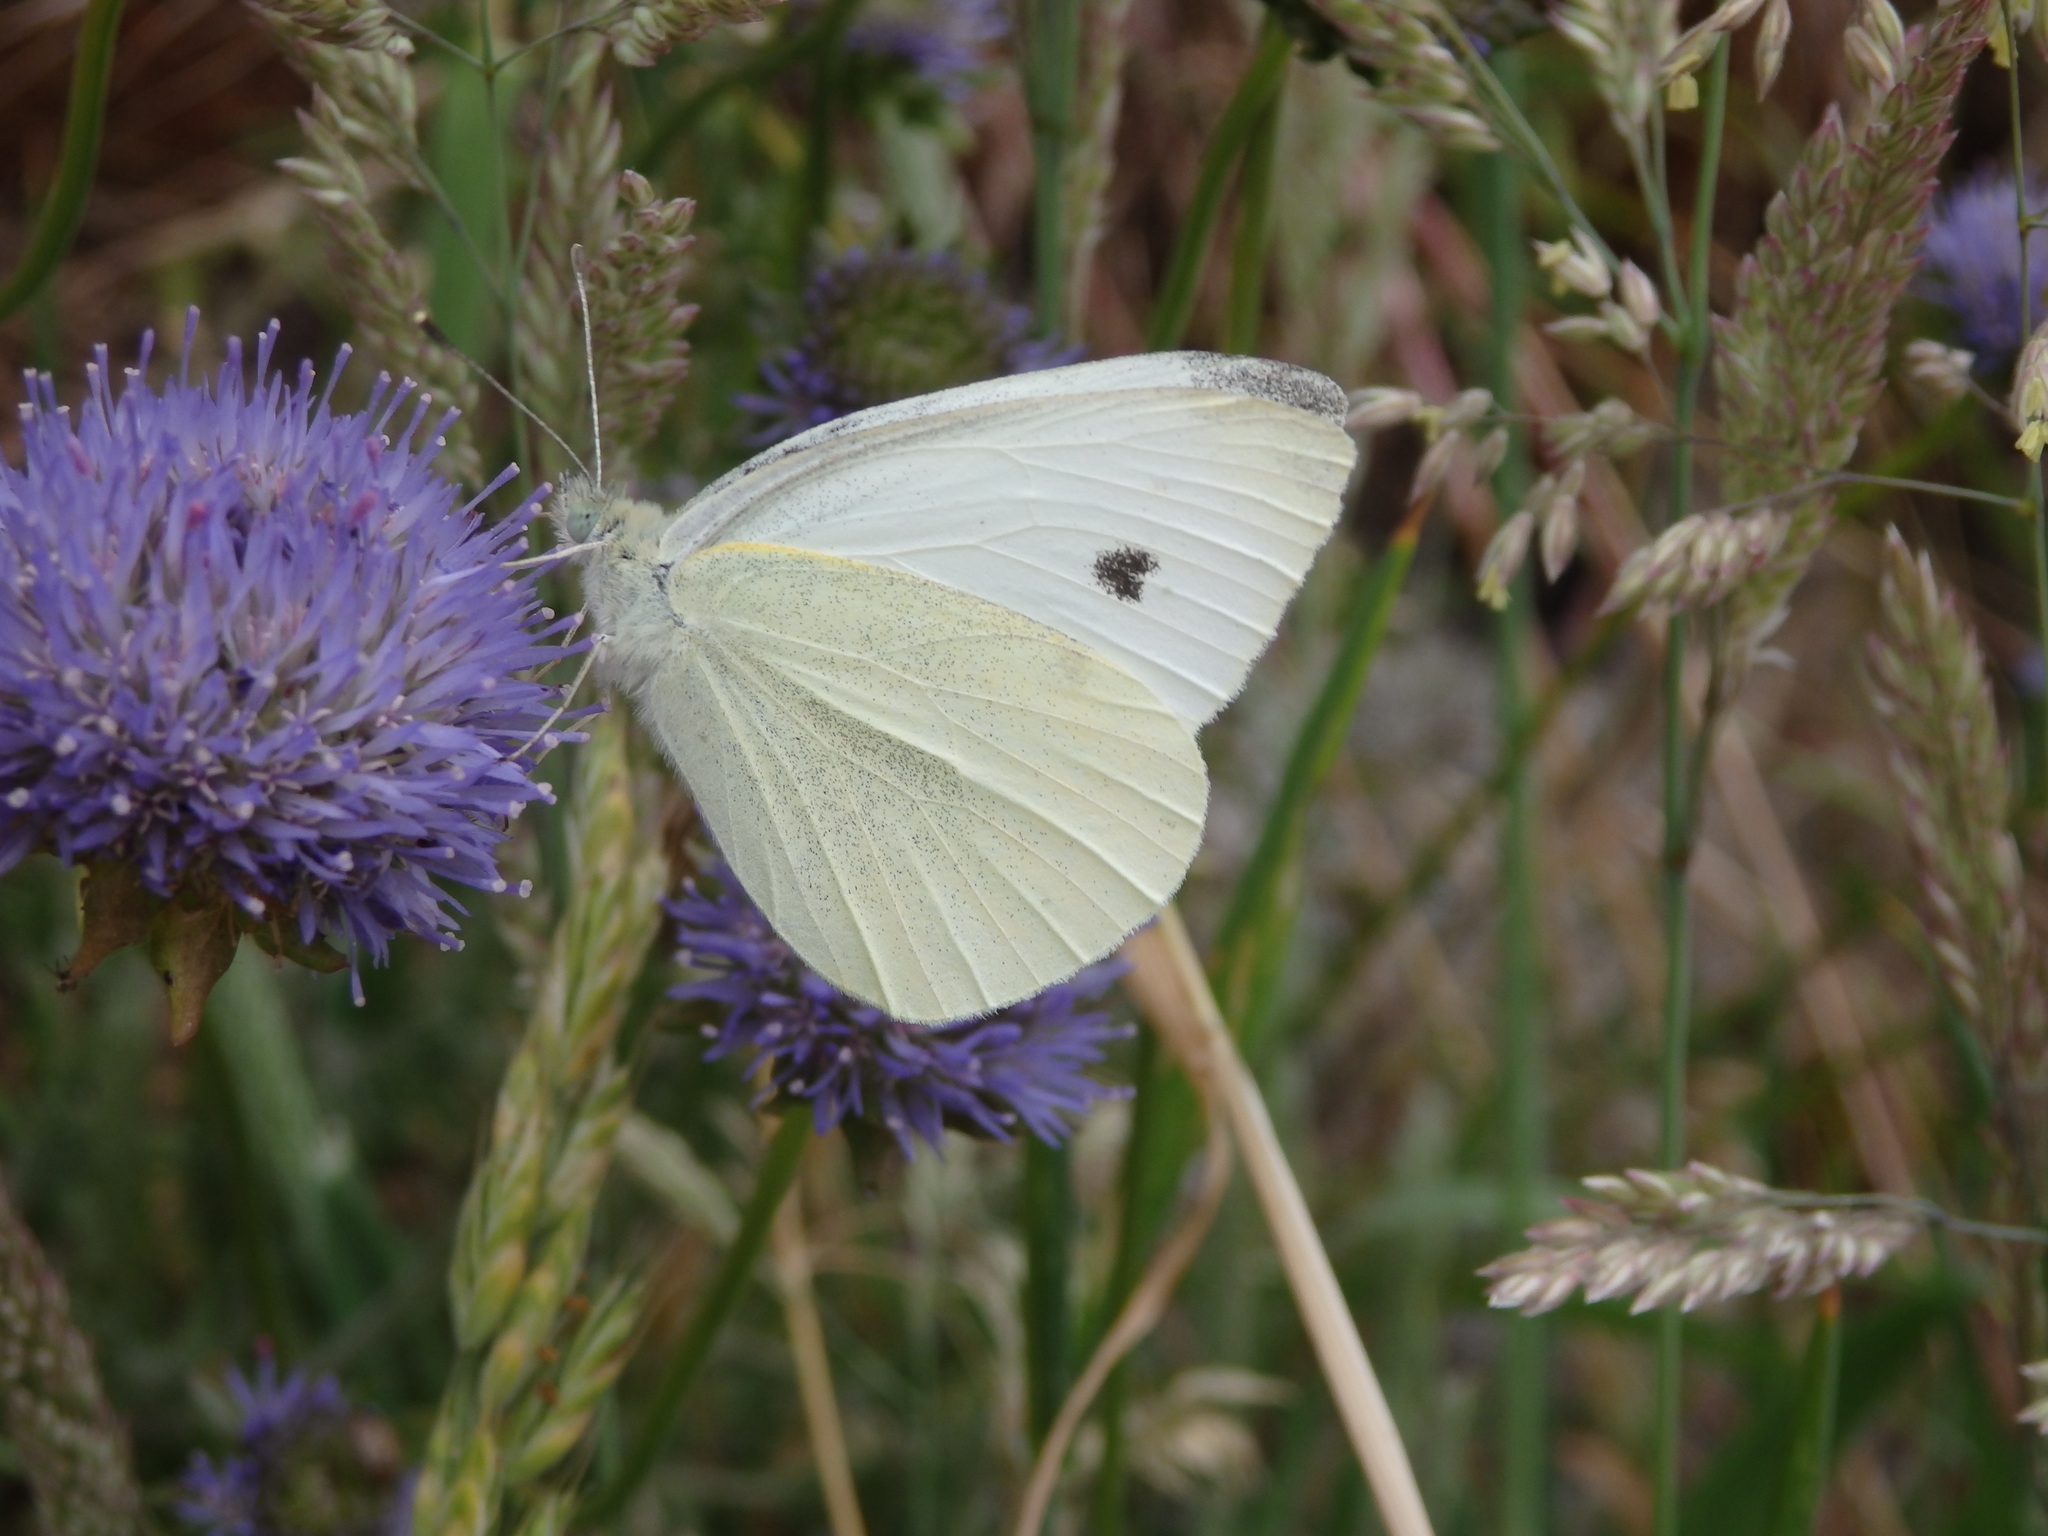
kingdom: Animalia
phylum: Arthropoda
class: Insecta
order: Lepidoptera
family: Pieridae
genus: Pieris
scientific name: Pieris rapae
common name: Small white
